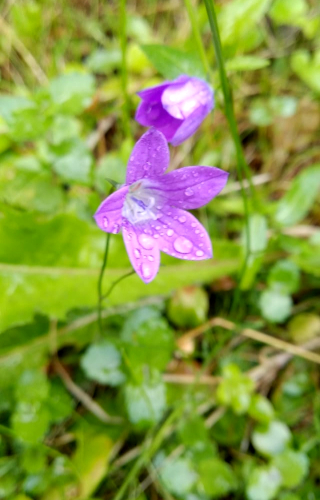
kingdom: Plantae
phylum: Tracheophyta
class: Magnoliopsida
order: Asterales
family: Campanulaceae
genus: Campanula
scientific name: Campanula patula
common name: Spreading bellflower
